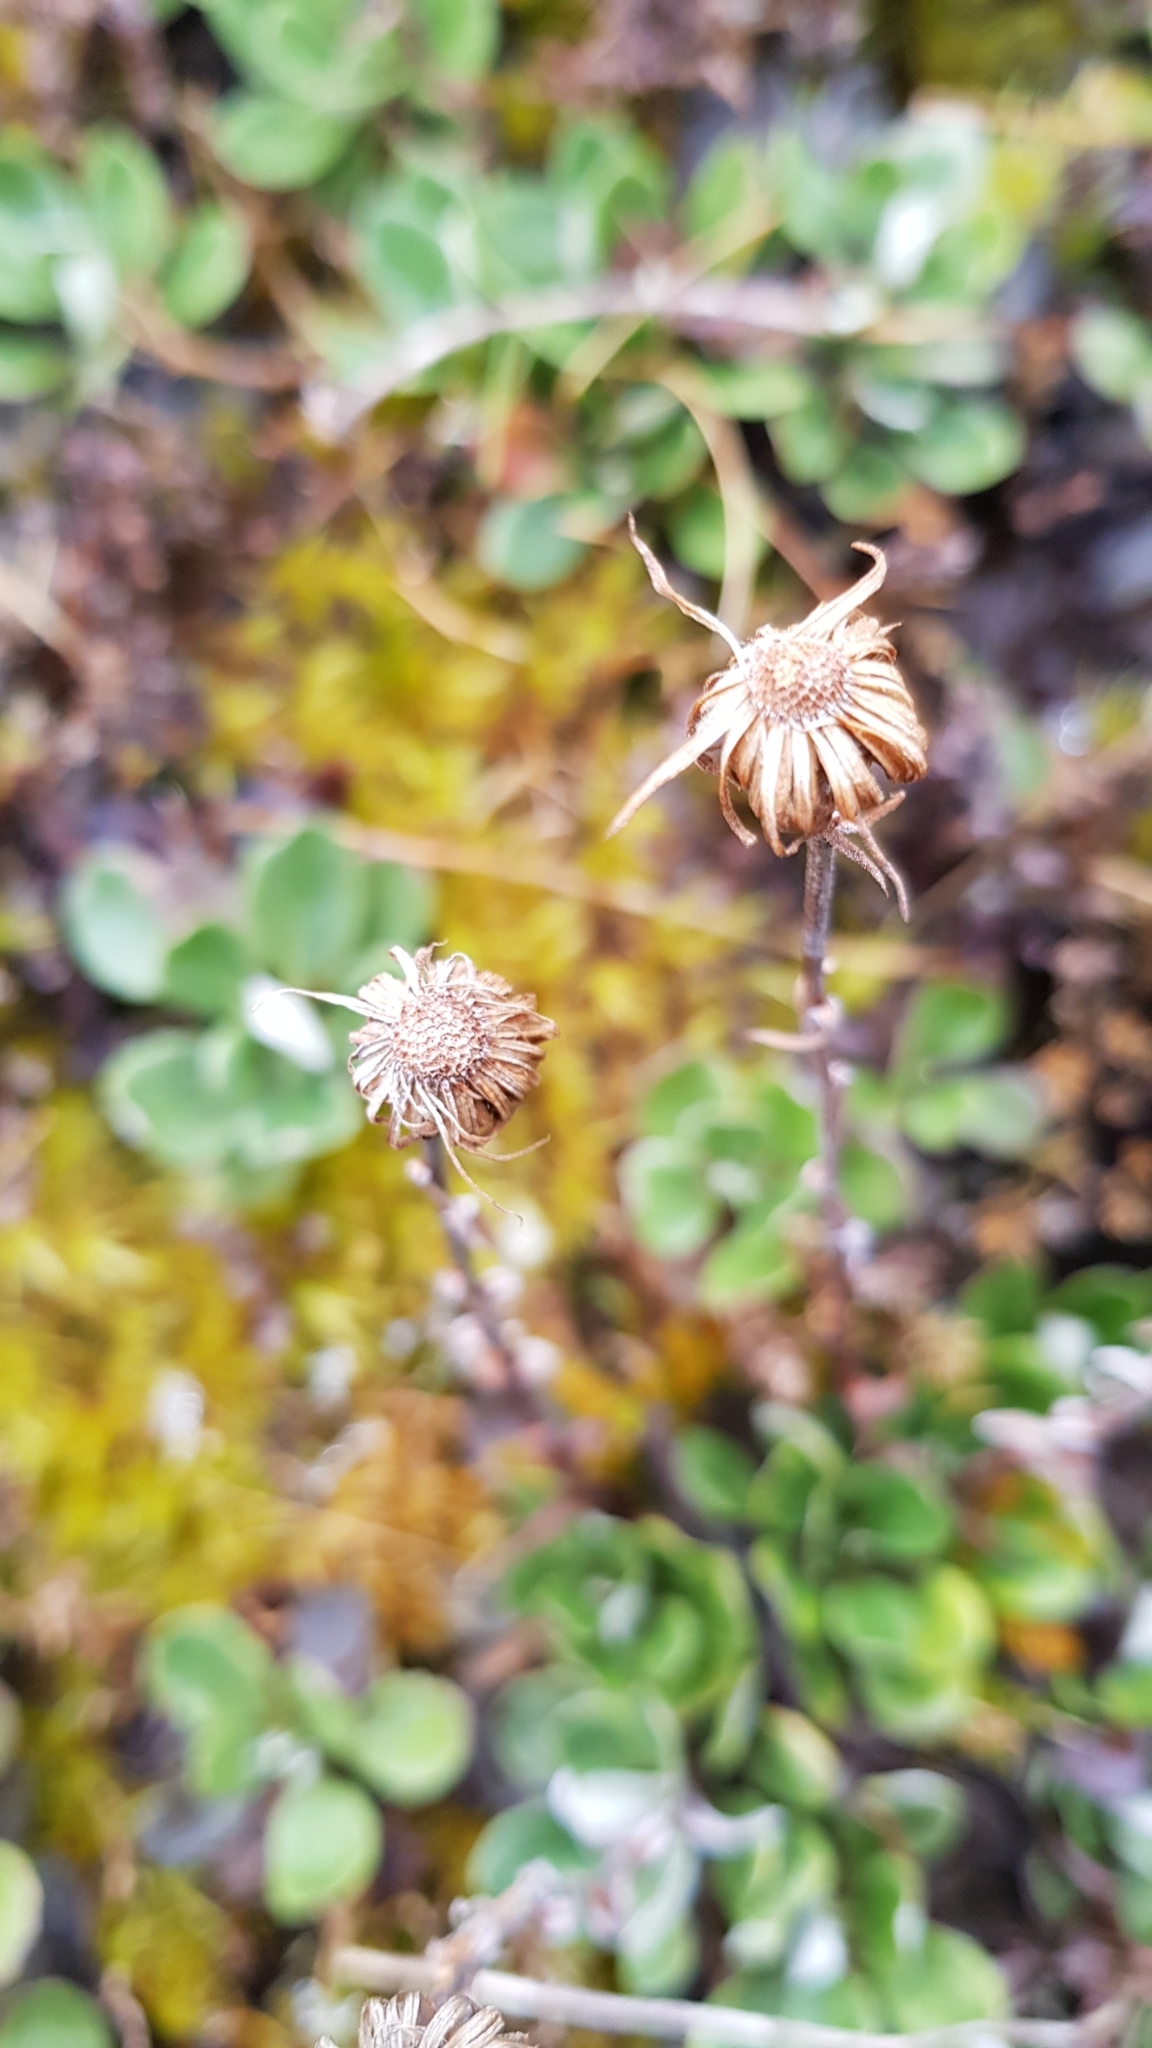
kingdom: Plantae
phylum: Tracheophyta
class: Magnoliopsida
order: Asterales
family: Asteraceae
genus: Celmisia
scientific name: Celmisia discolor
